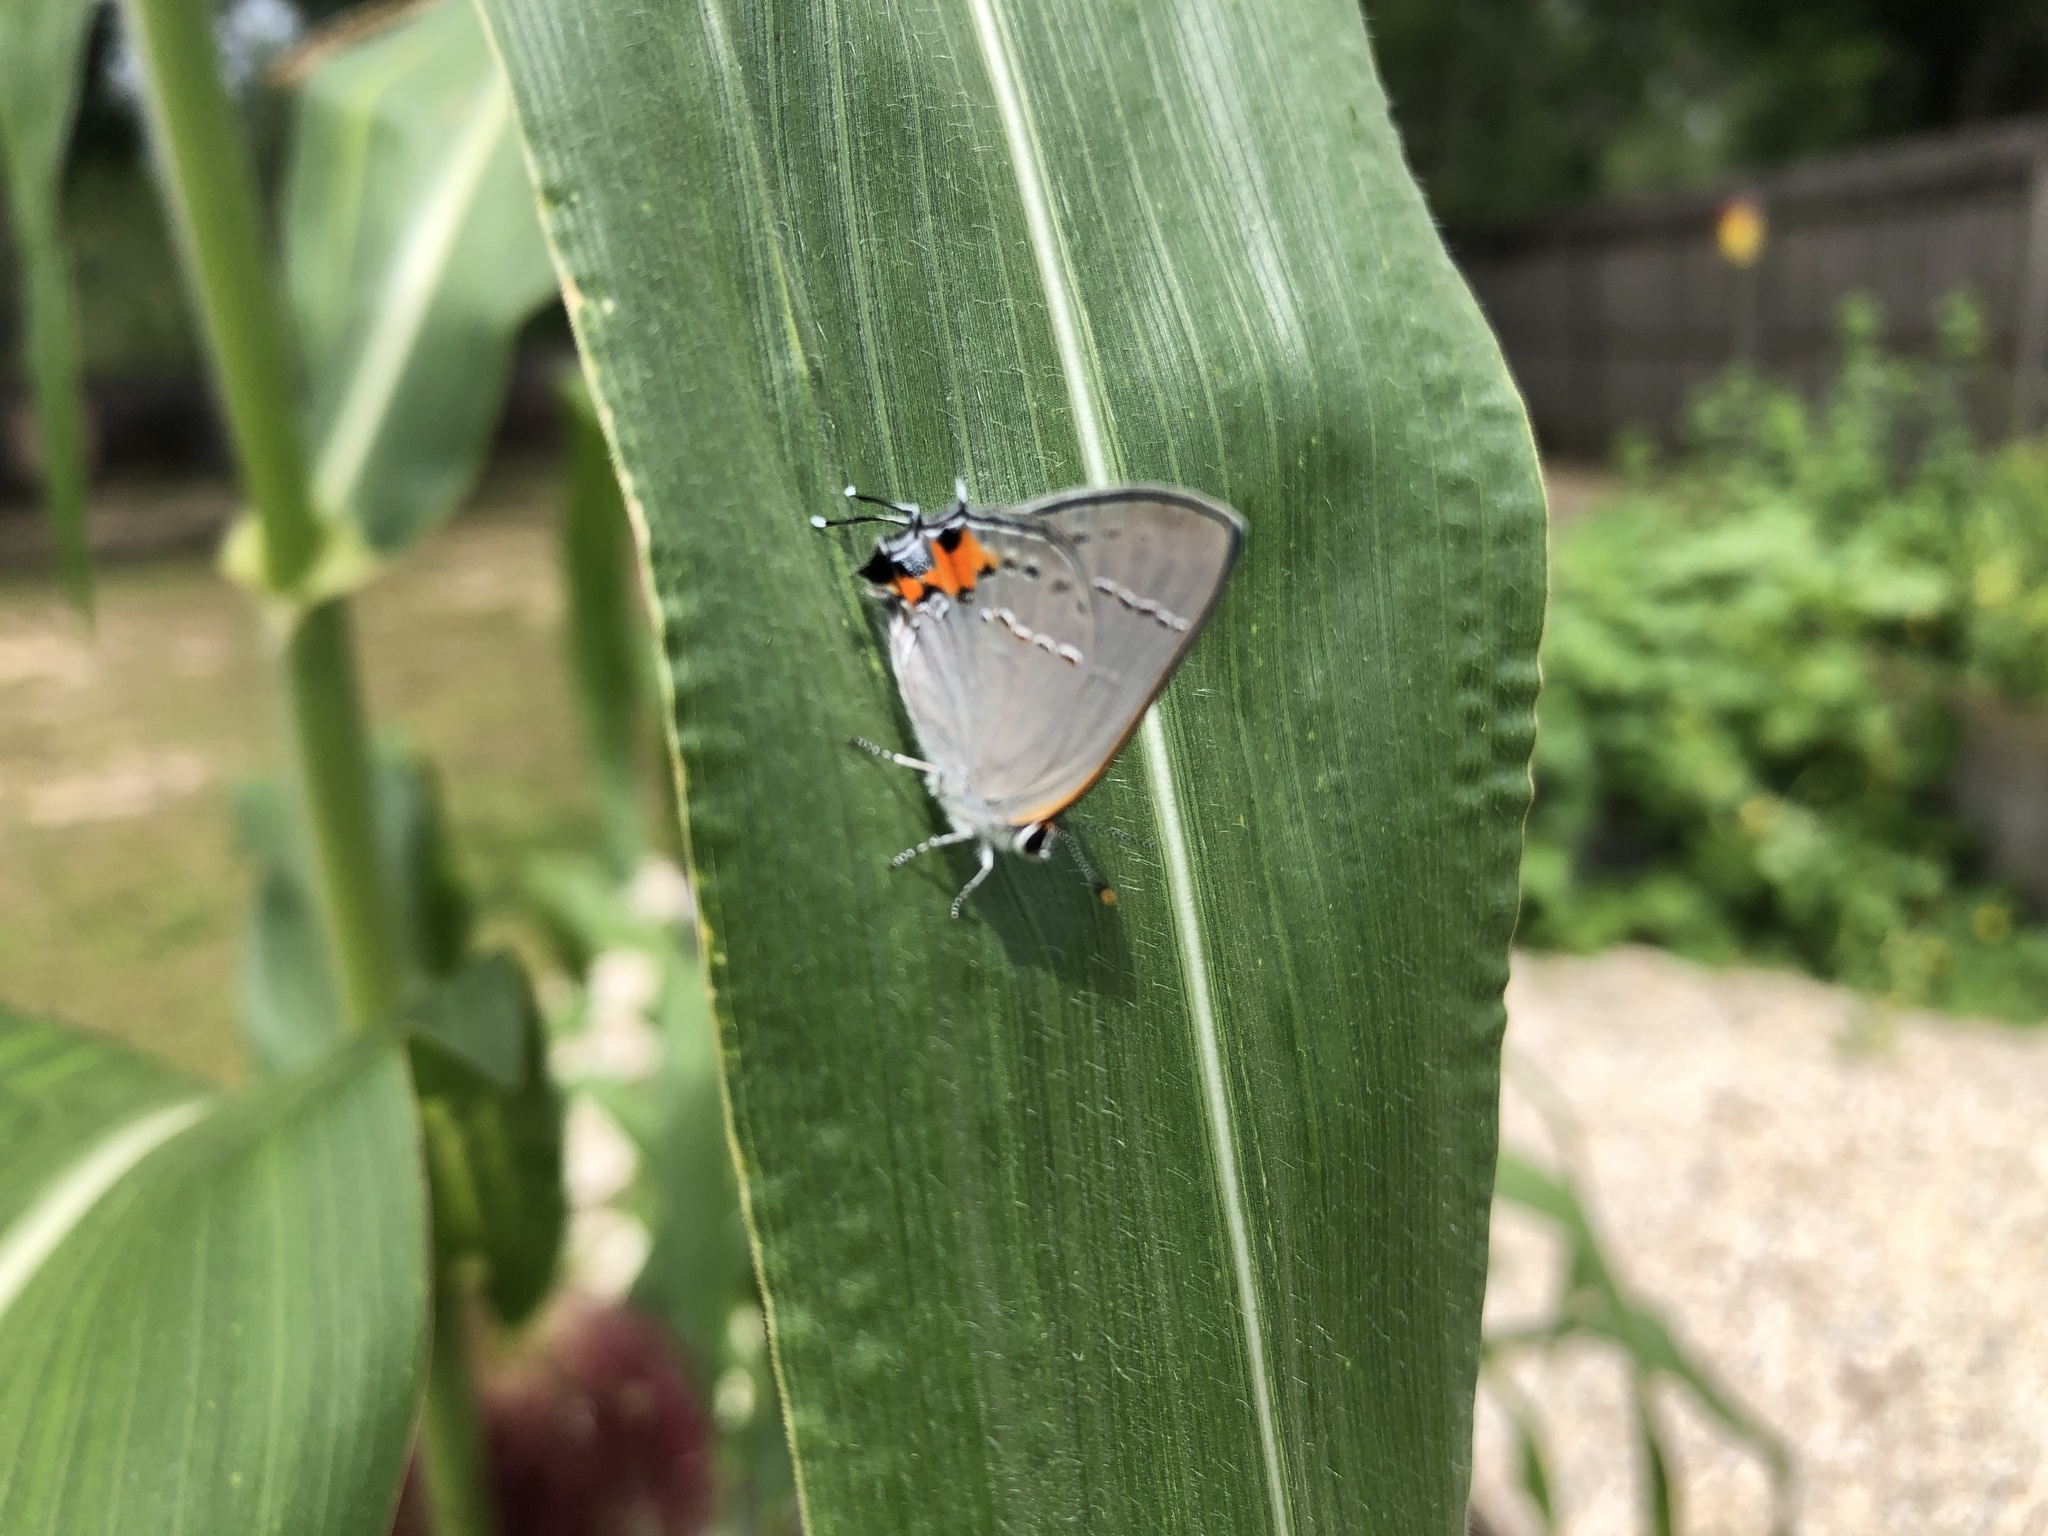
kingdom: Animalia
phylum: Arthropoda
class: Insecta
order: Lepidoptera
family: Lycaenidae
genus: Strymon
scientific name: Strymon melinus
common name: Gray hairstreak
